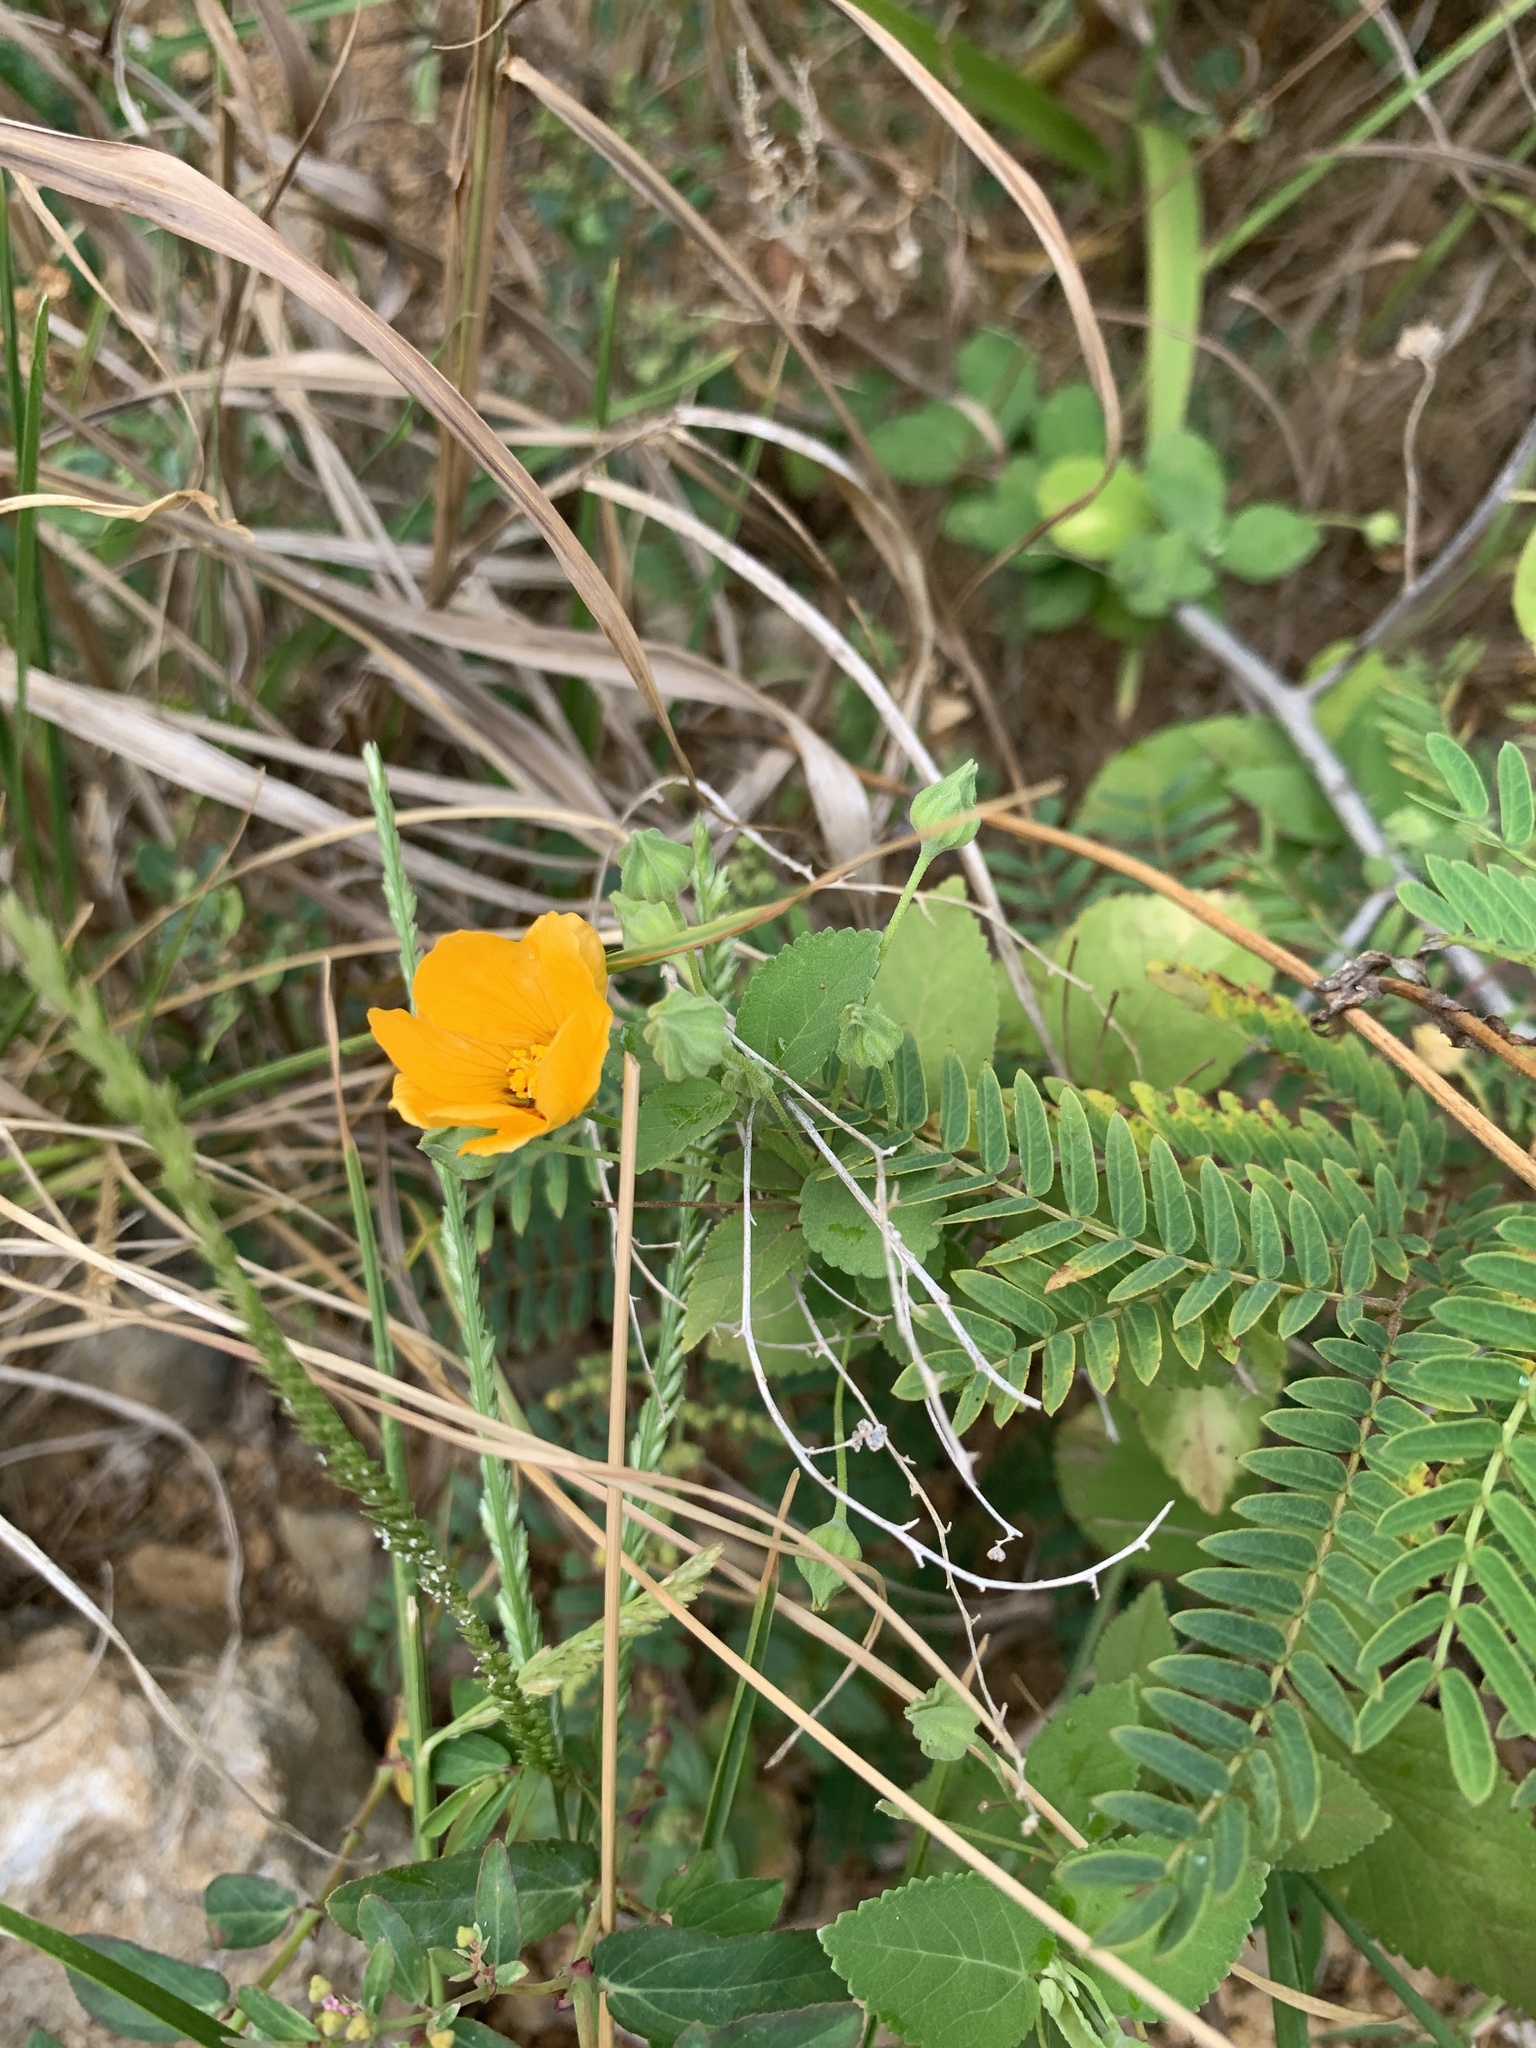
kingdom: Plantae
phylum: Tracheophyta
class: Magnoliopsida
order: Malvales
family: Malvaceae
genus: Sida
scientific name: Sida fallax
